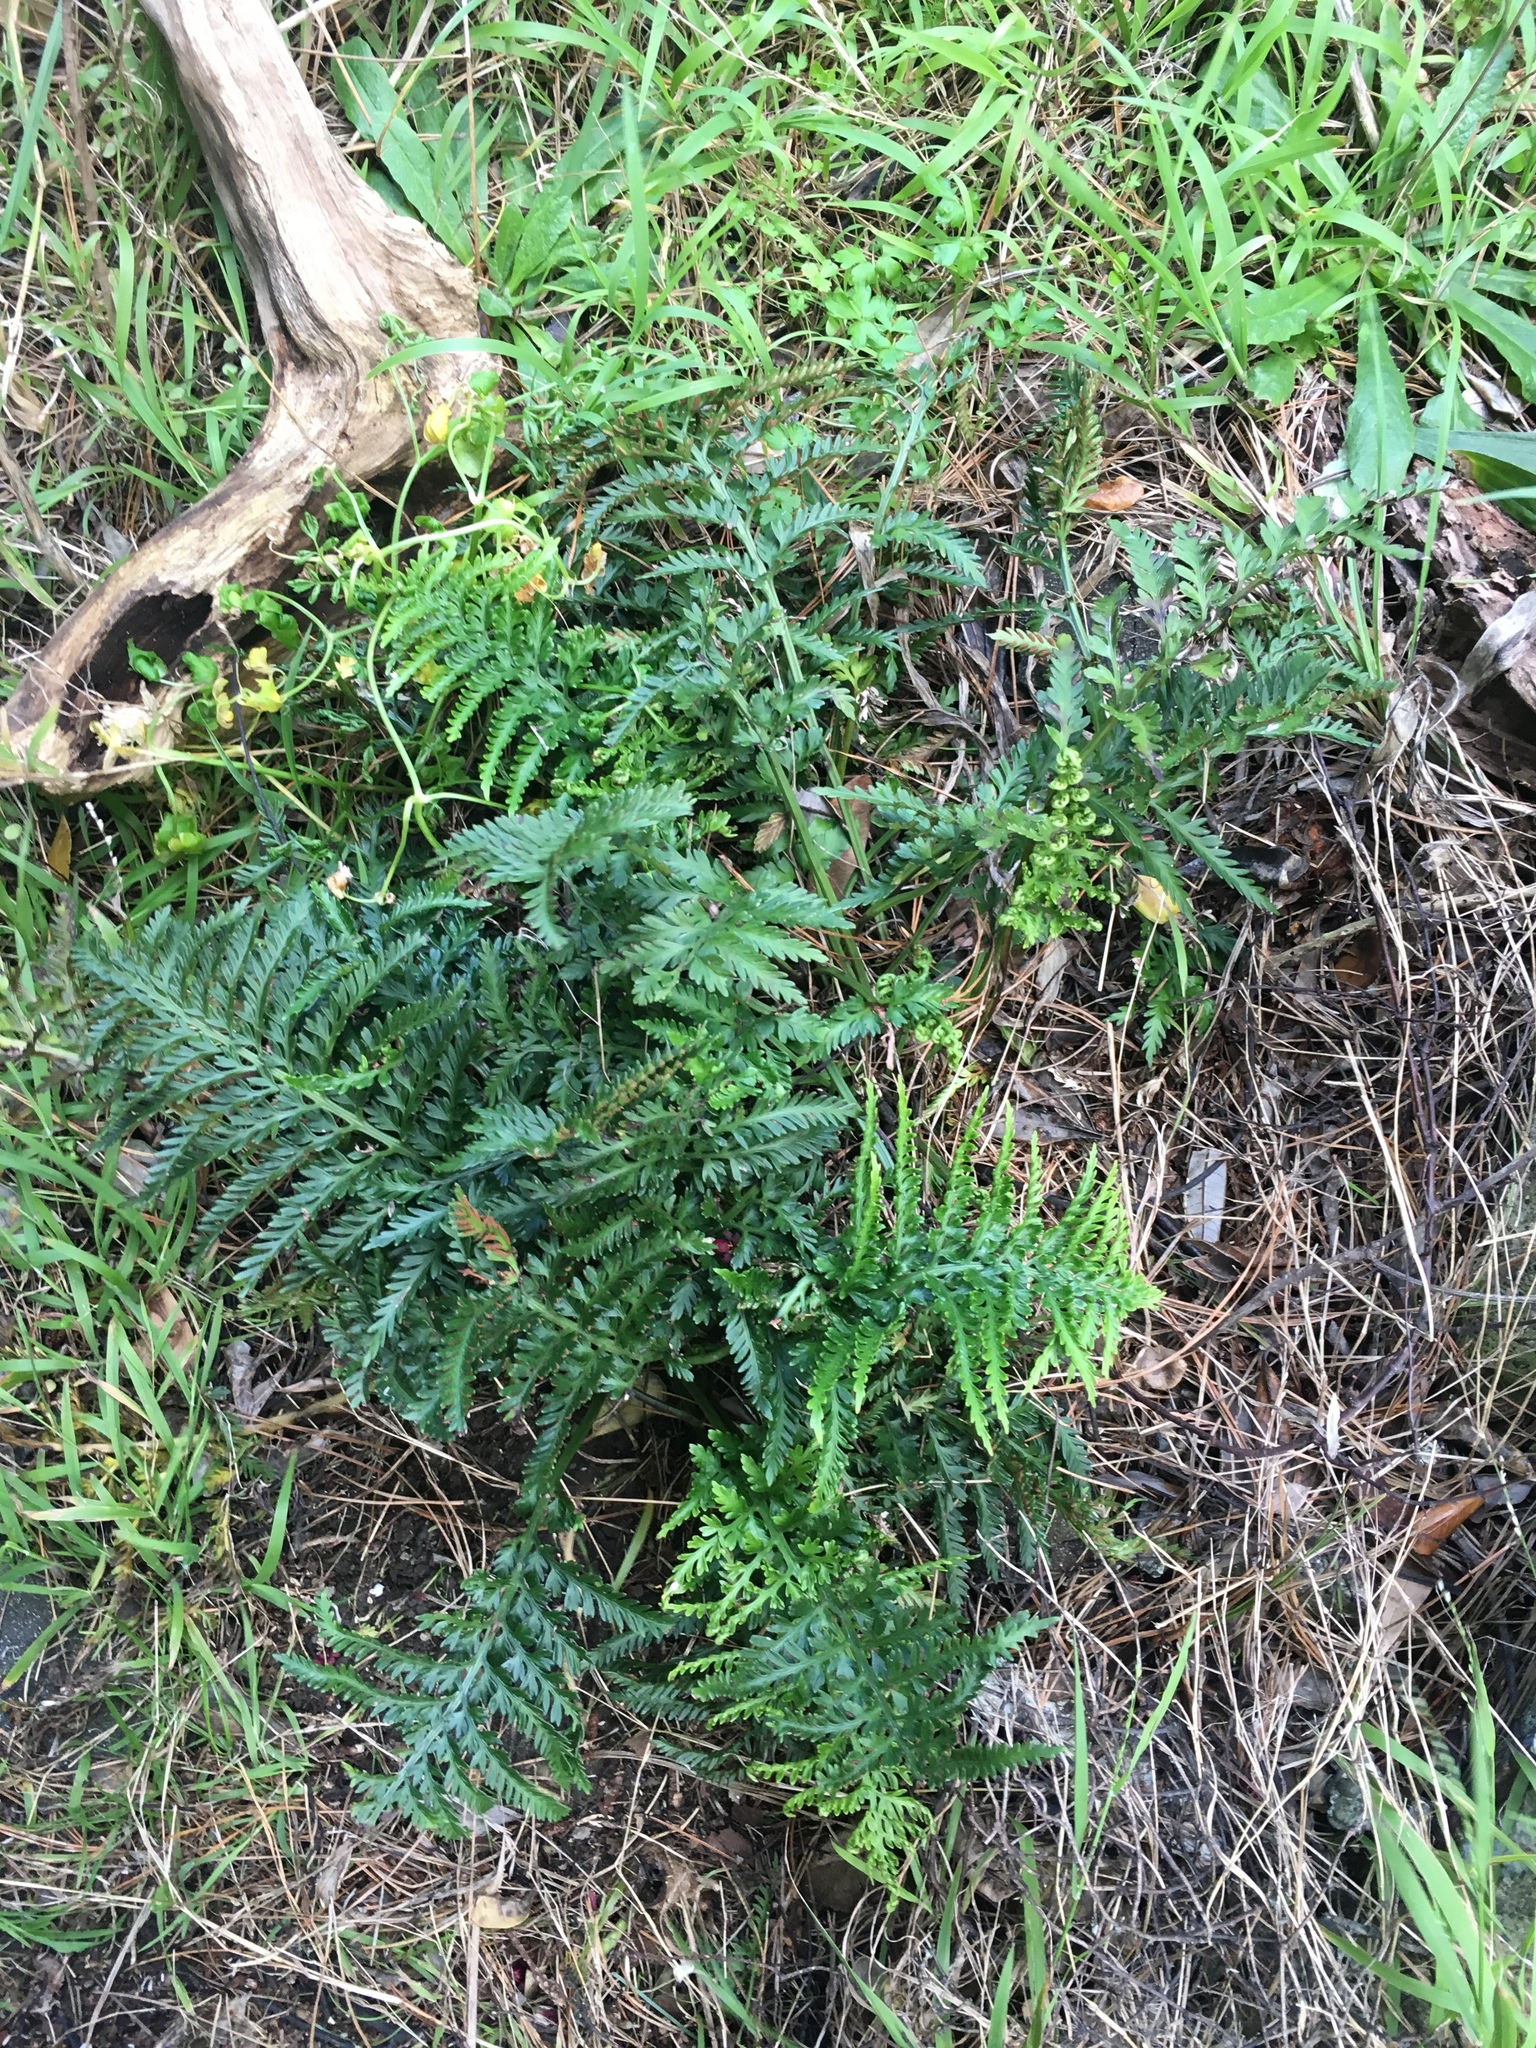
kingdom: Plantae
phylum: Tracheophyta
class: Polypodiopsida
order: Polypodiales
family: Aspleniaceae
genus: Asplenium
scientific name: Asplenium appendiculatum
